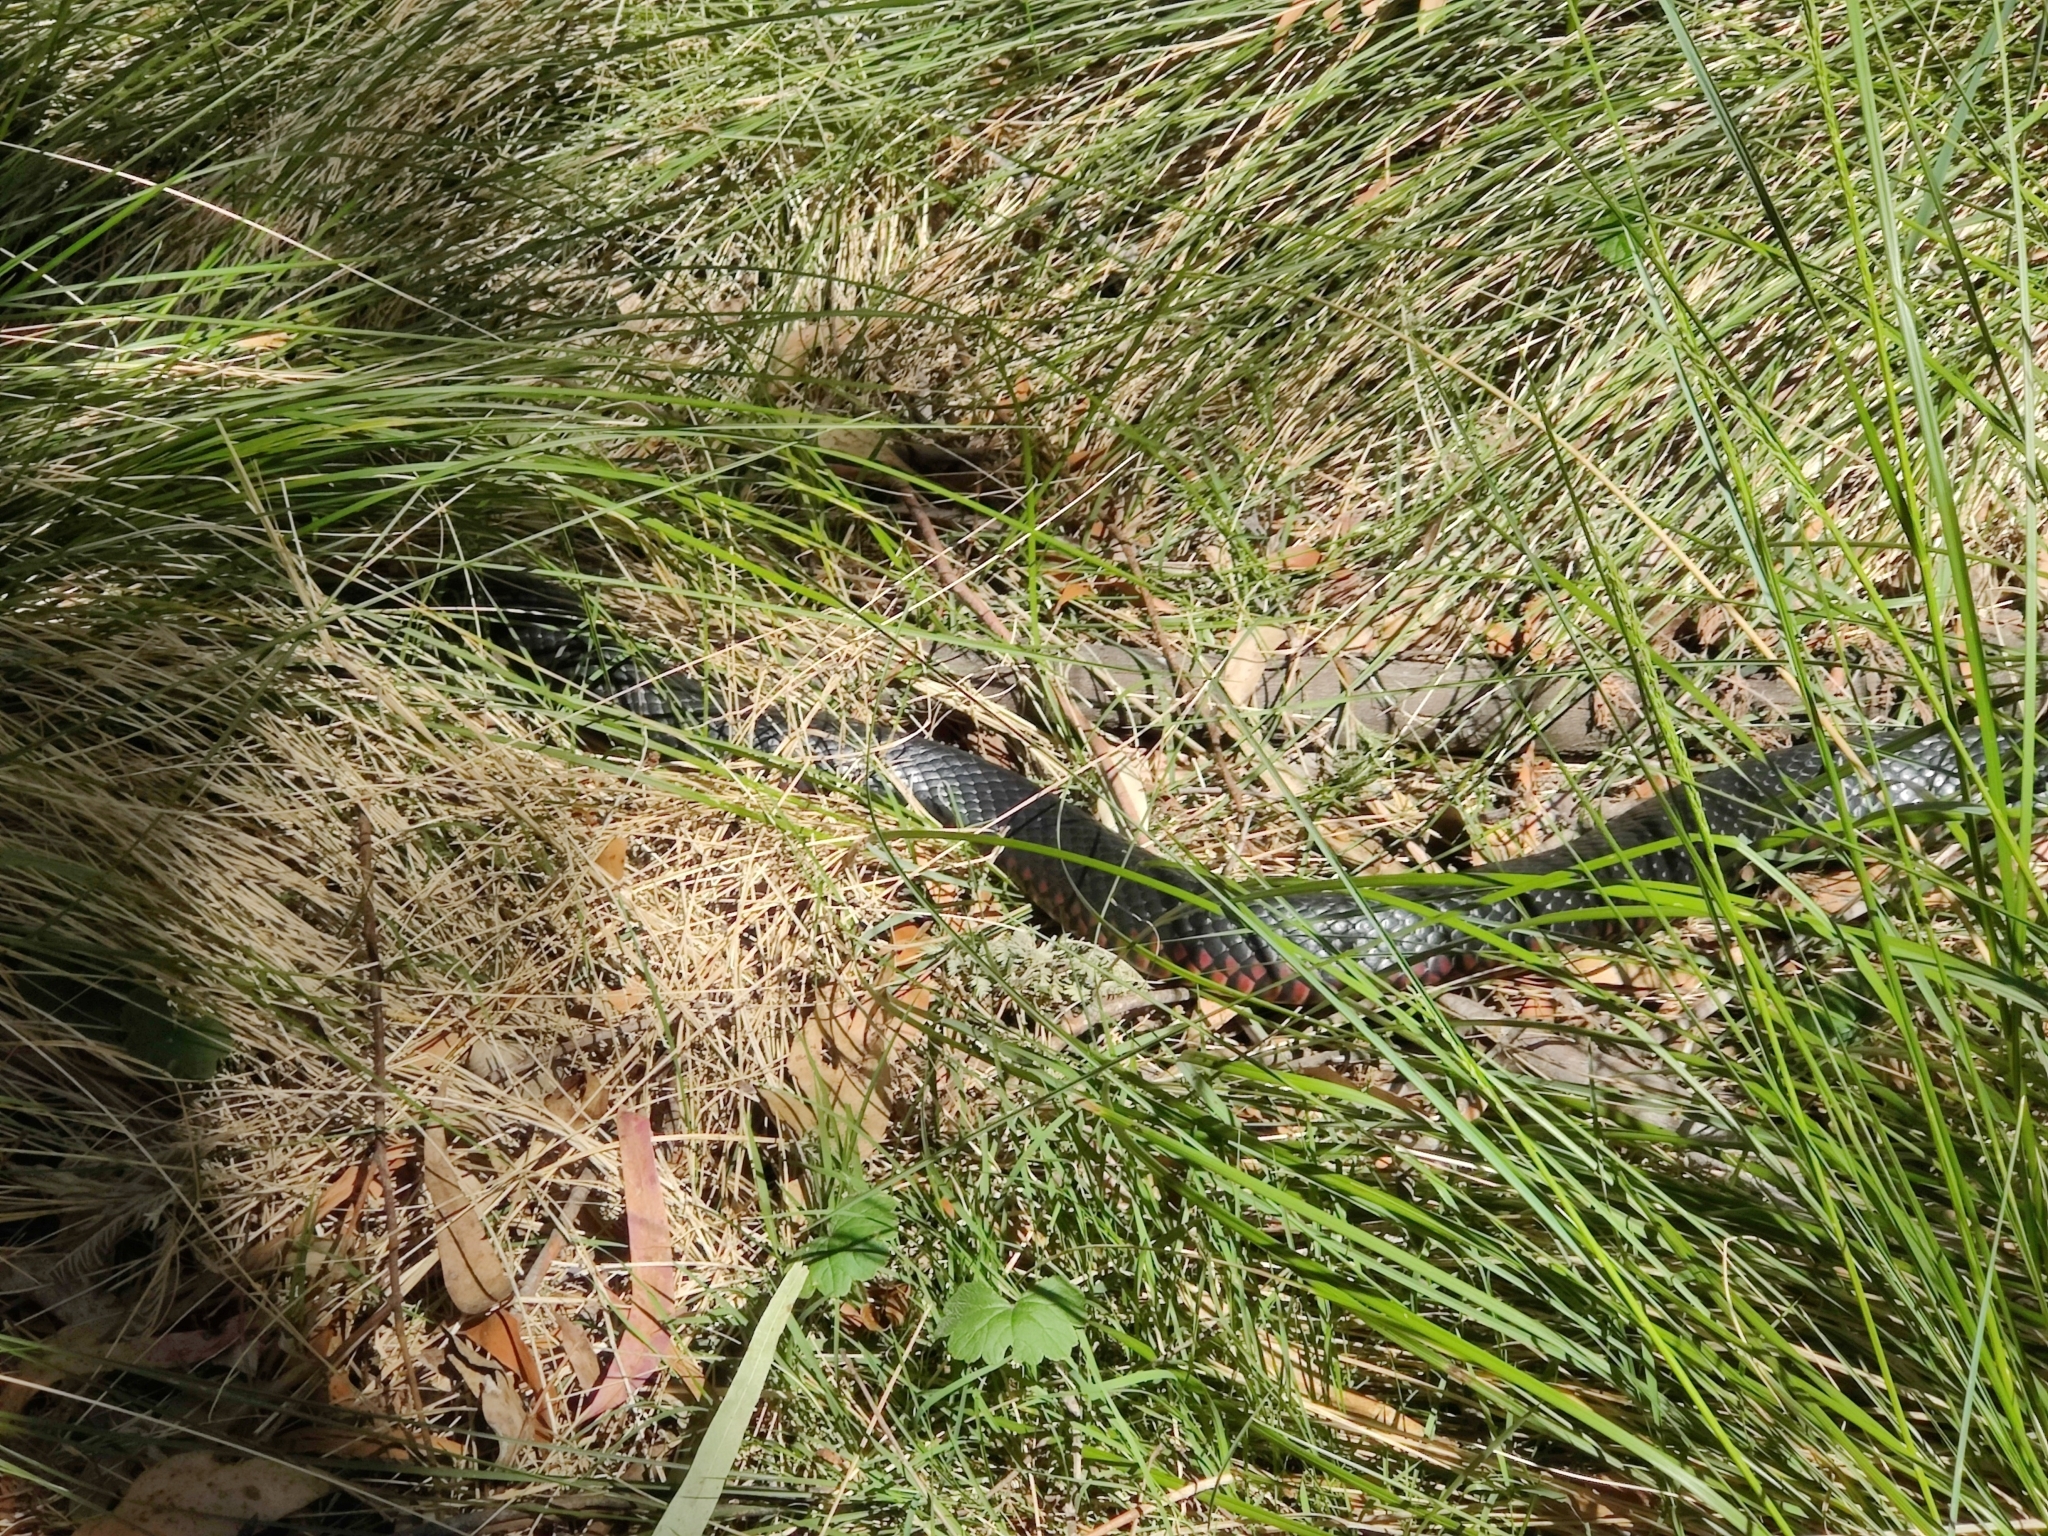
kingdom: Animalia
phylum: Chordata
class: Squamata
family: Elapidae
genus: Pseudechis
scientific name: Pseudechis porphyriacus
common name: Australian black snake
